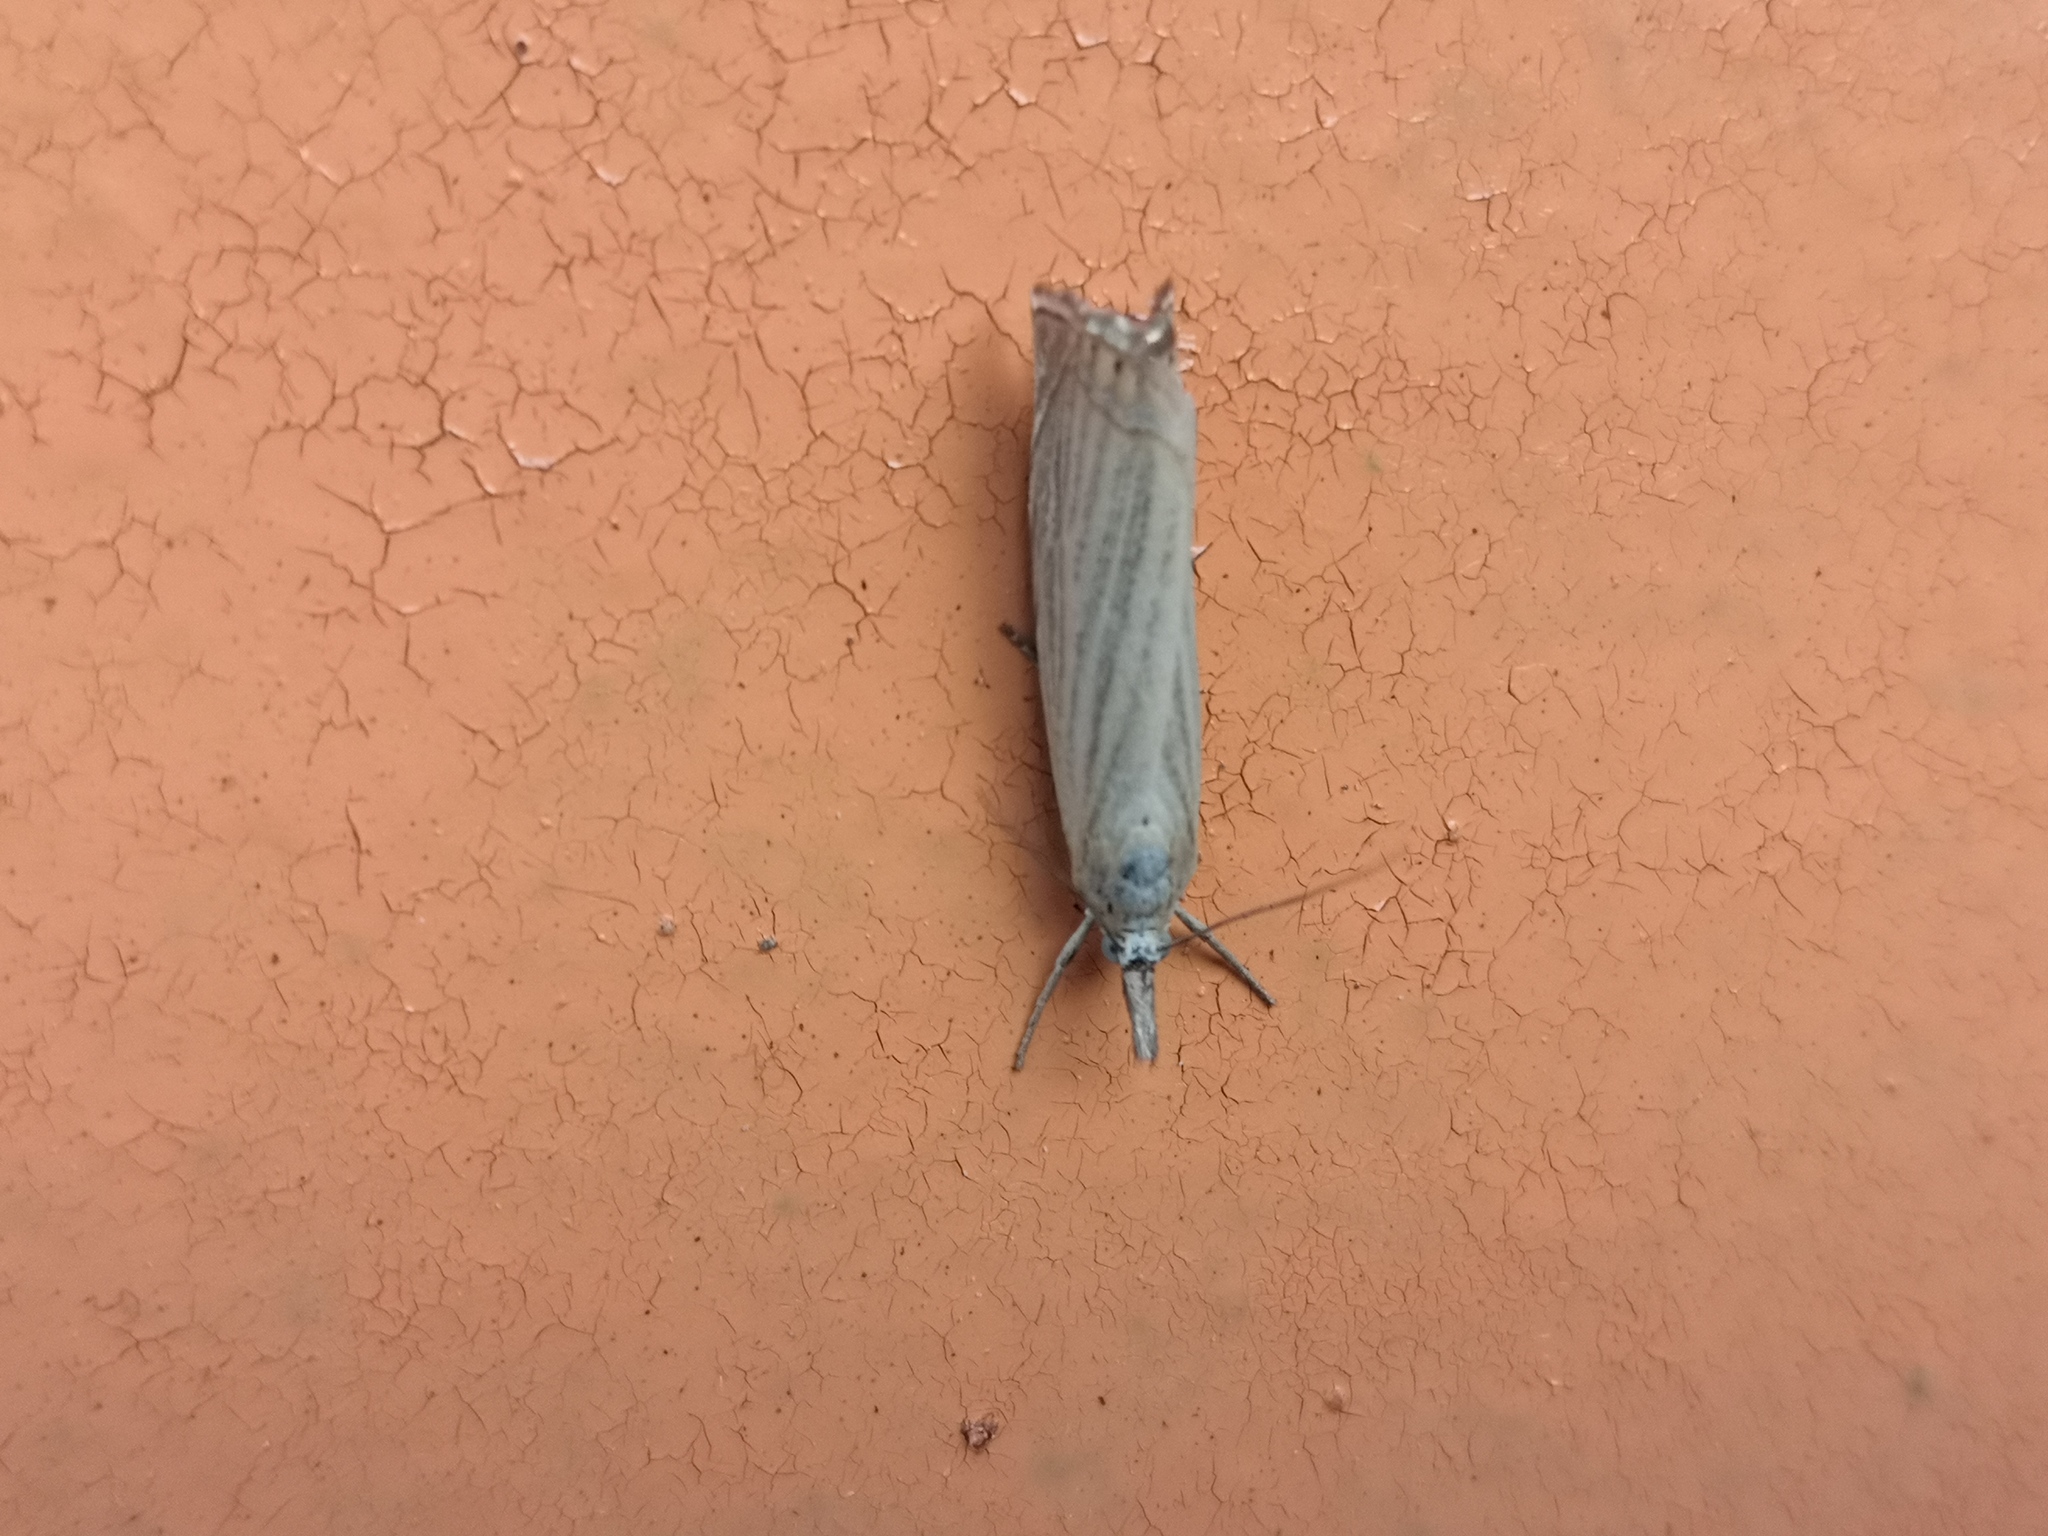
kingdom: Animalia
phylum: Arthropoda
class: Insecta
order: Lepidoptera
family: Crambidae
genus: Chrysoteuchia
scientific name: Chrysoteuchia culmella
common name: Garden grass-veneer
